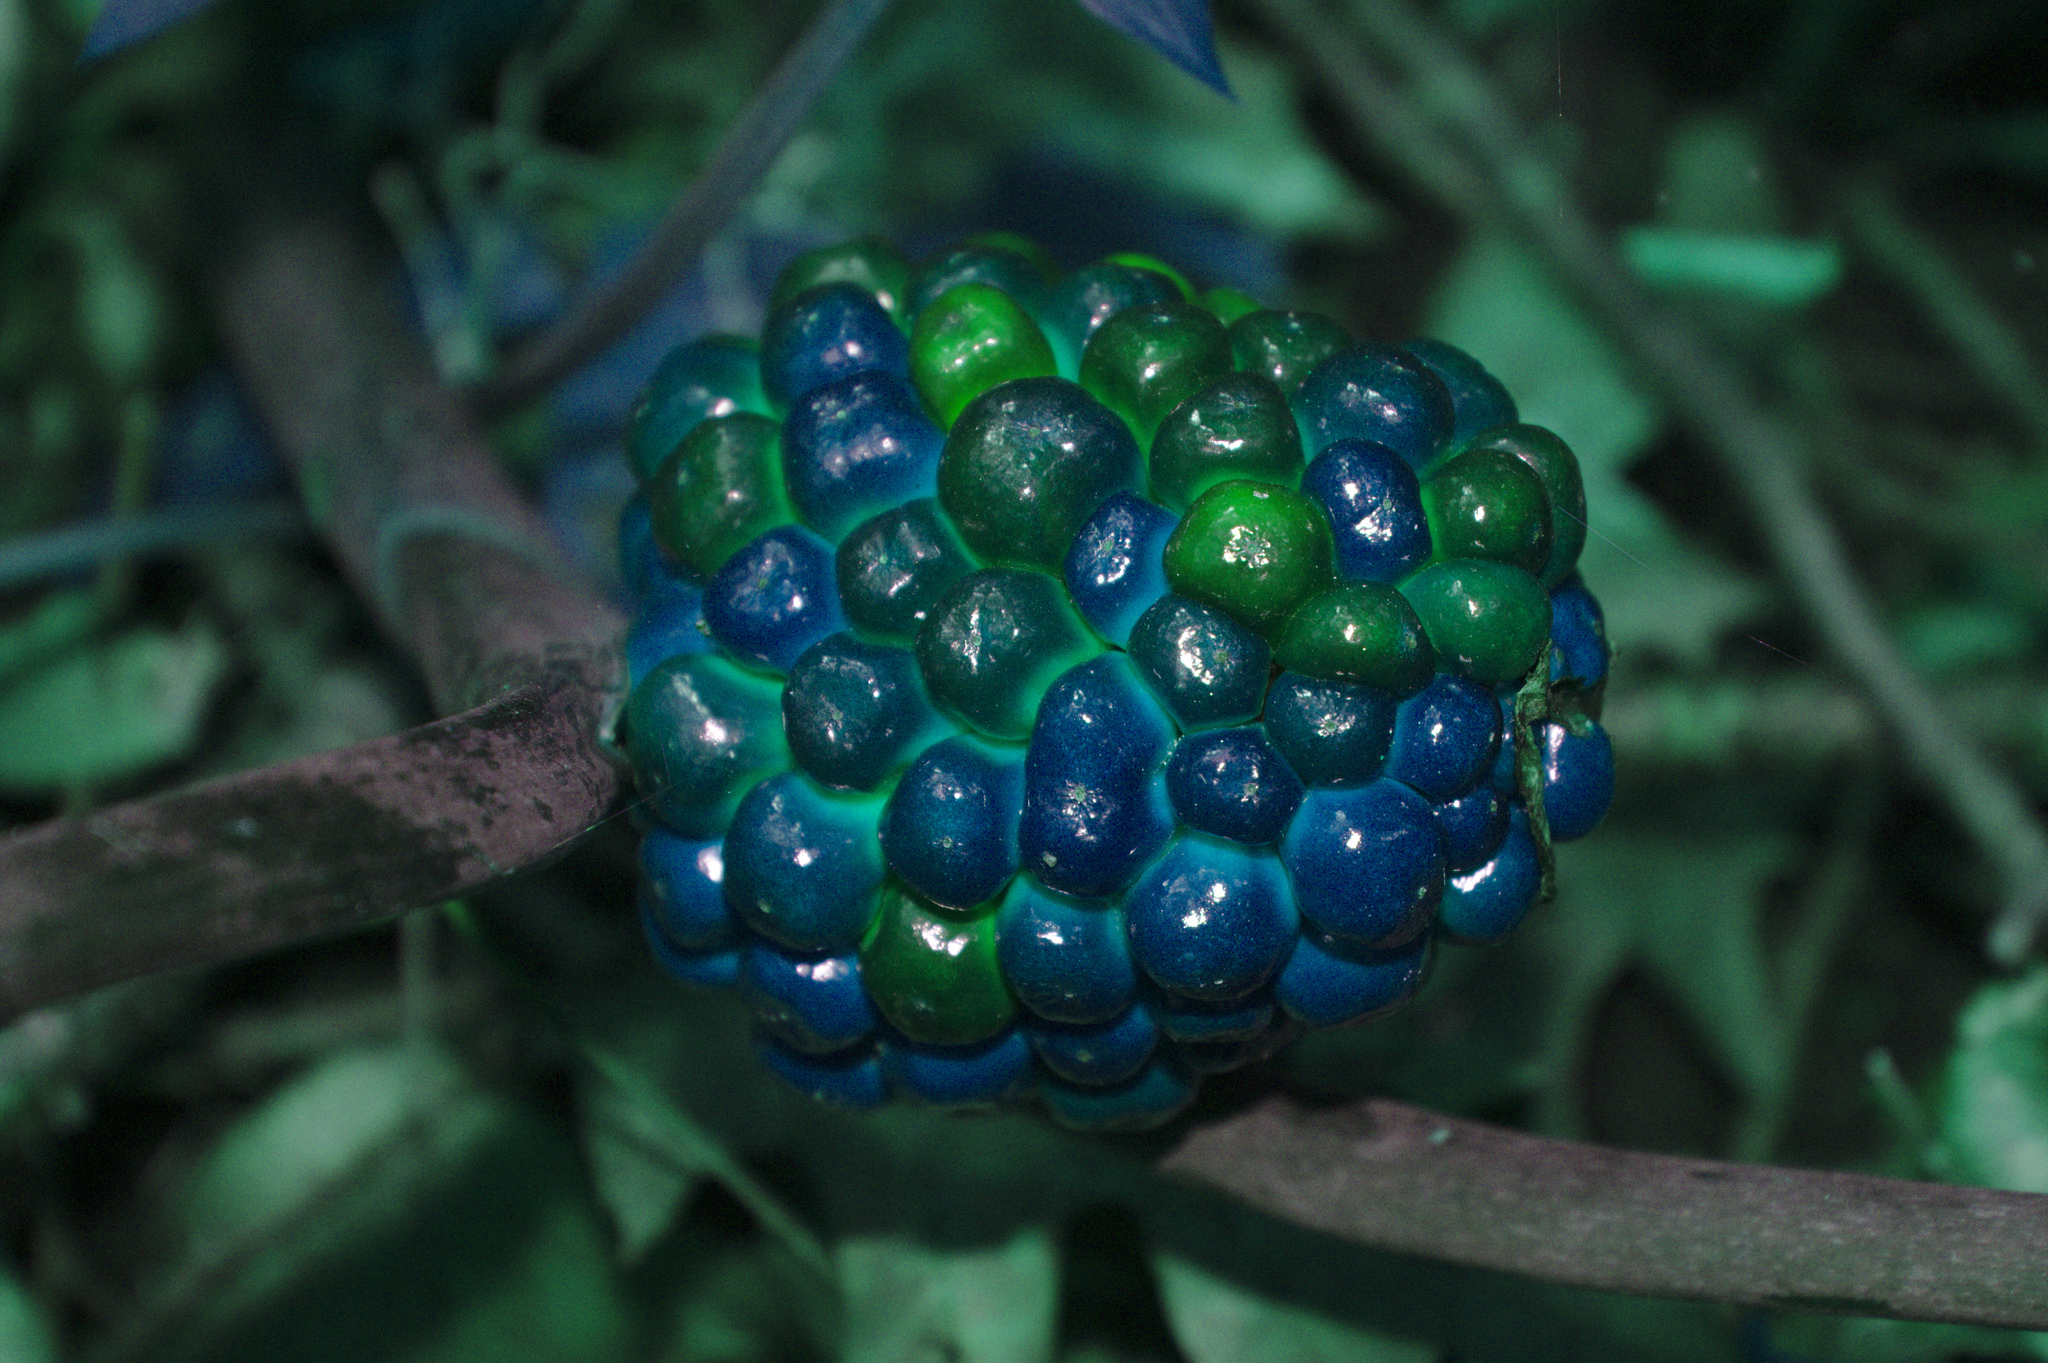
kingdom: Plantae
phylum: Tracheophyta
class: Liliopsida
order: Alismatales
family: Araceae
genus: Arisaema
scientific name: Arisaema triphyllum
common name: Jack-in-the-pulpit
